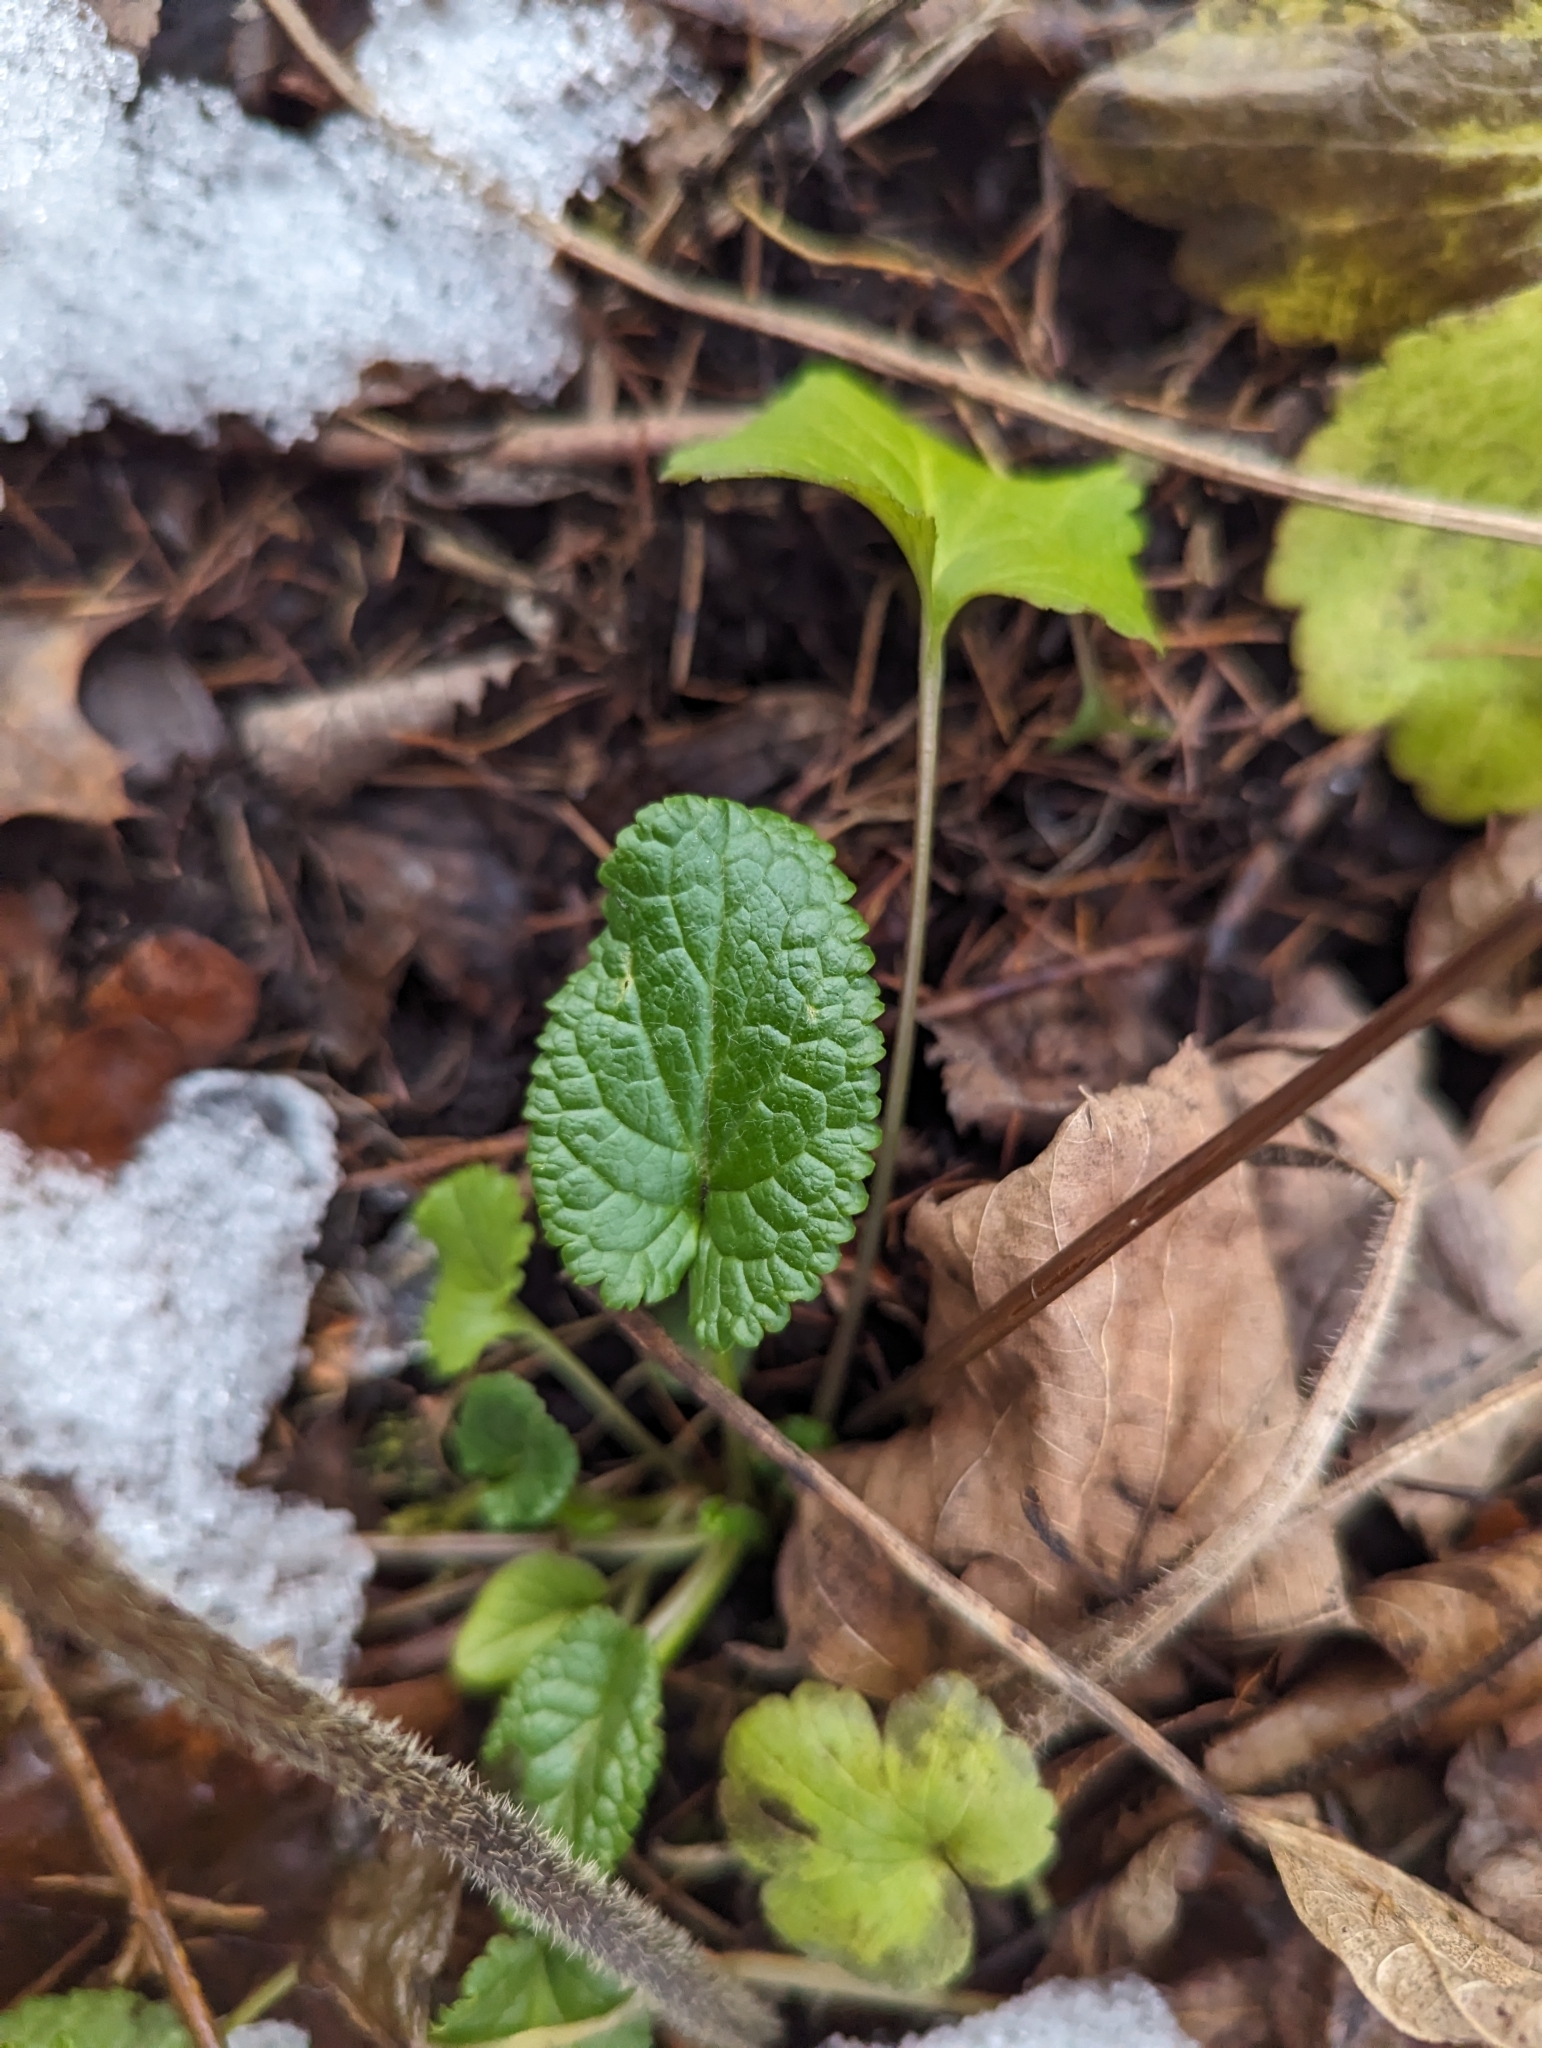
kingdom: Plantae
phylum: Tracheophyta
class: Magnoliopsida
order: Asterales
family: Asteraceae
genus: Packera
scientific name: Packera aurea
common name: Golden groundsel
